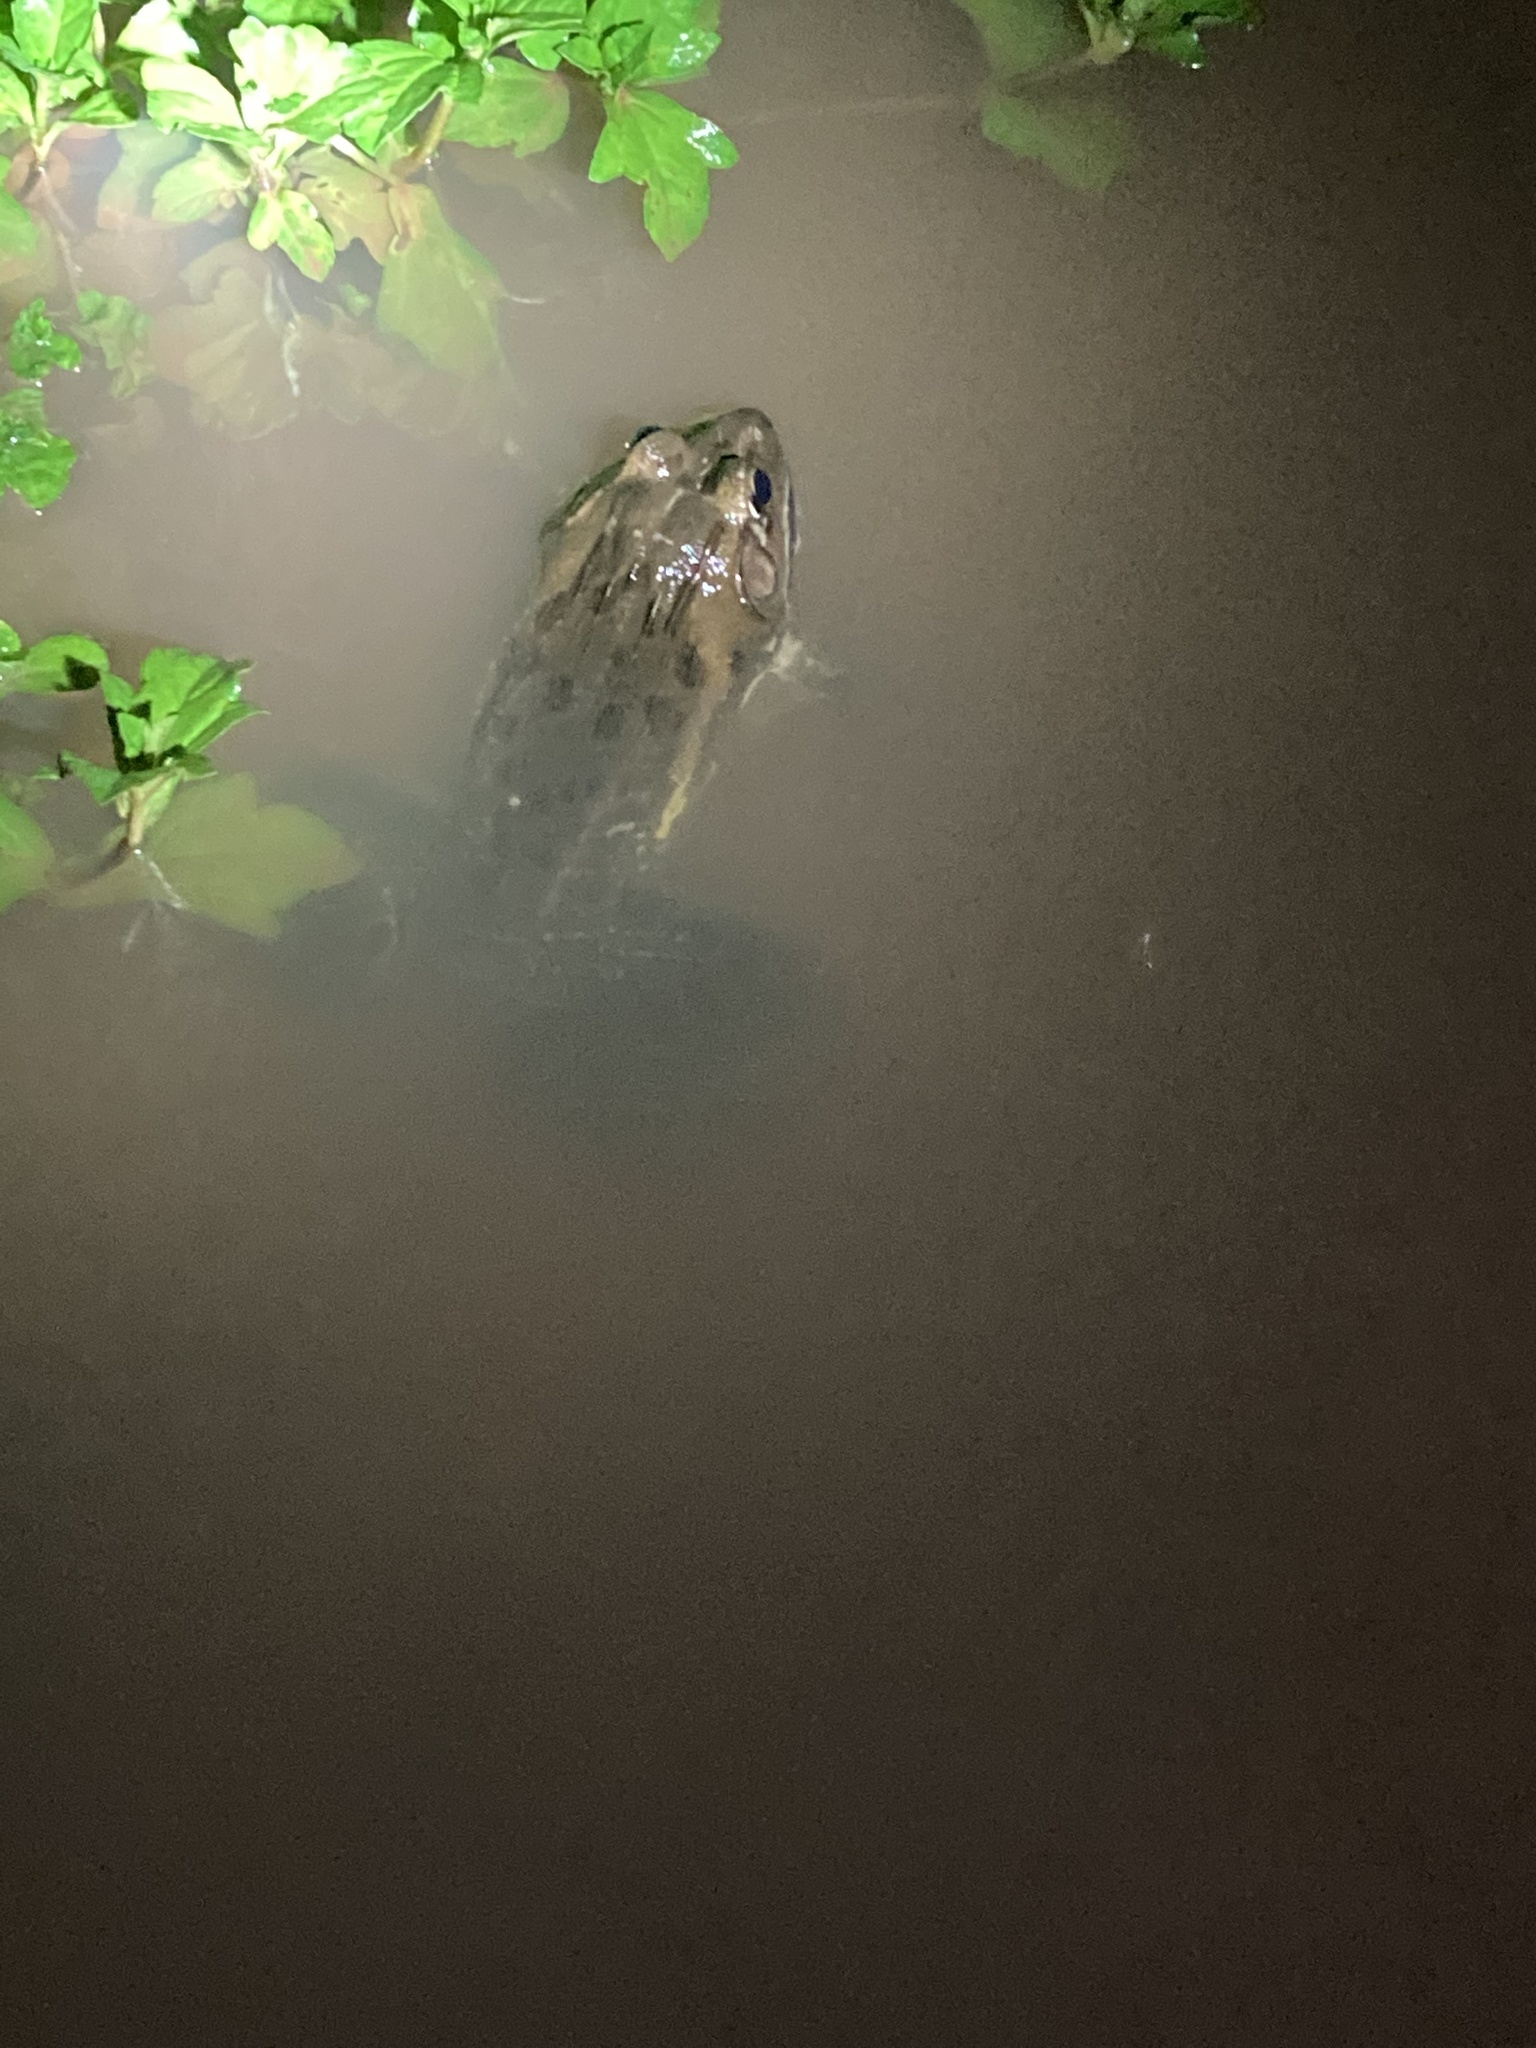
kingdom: Animalia
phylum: Chordata
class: Amphibia
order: Anura
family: Dicroglossidae
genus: Hoplobatrachus
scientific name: Hoplobatrachus tigerinus
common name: Indian bullfrog
